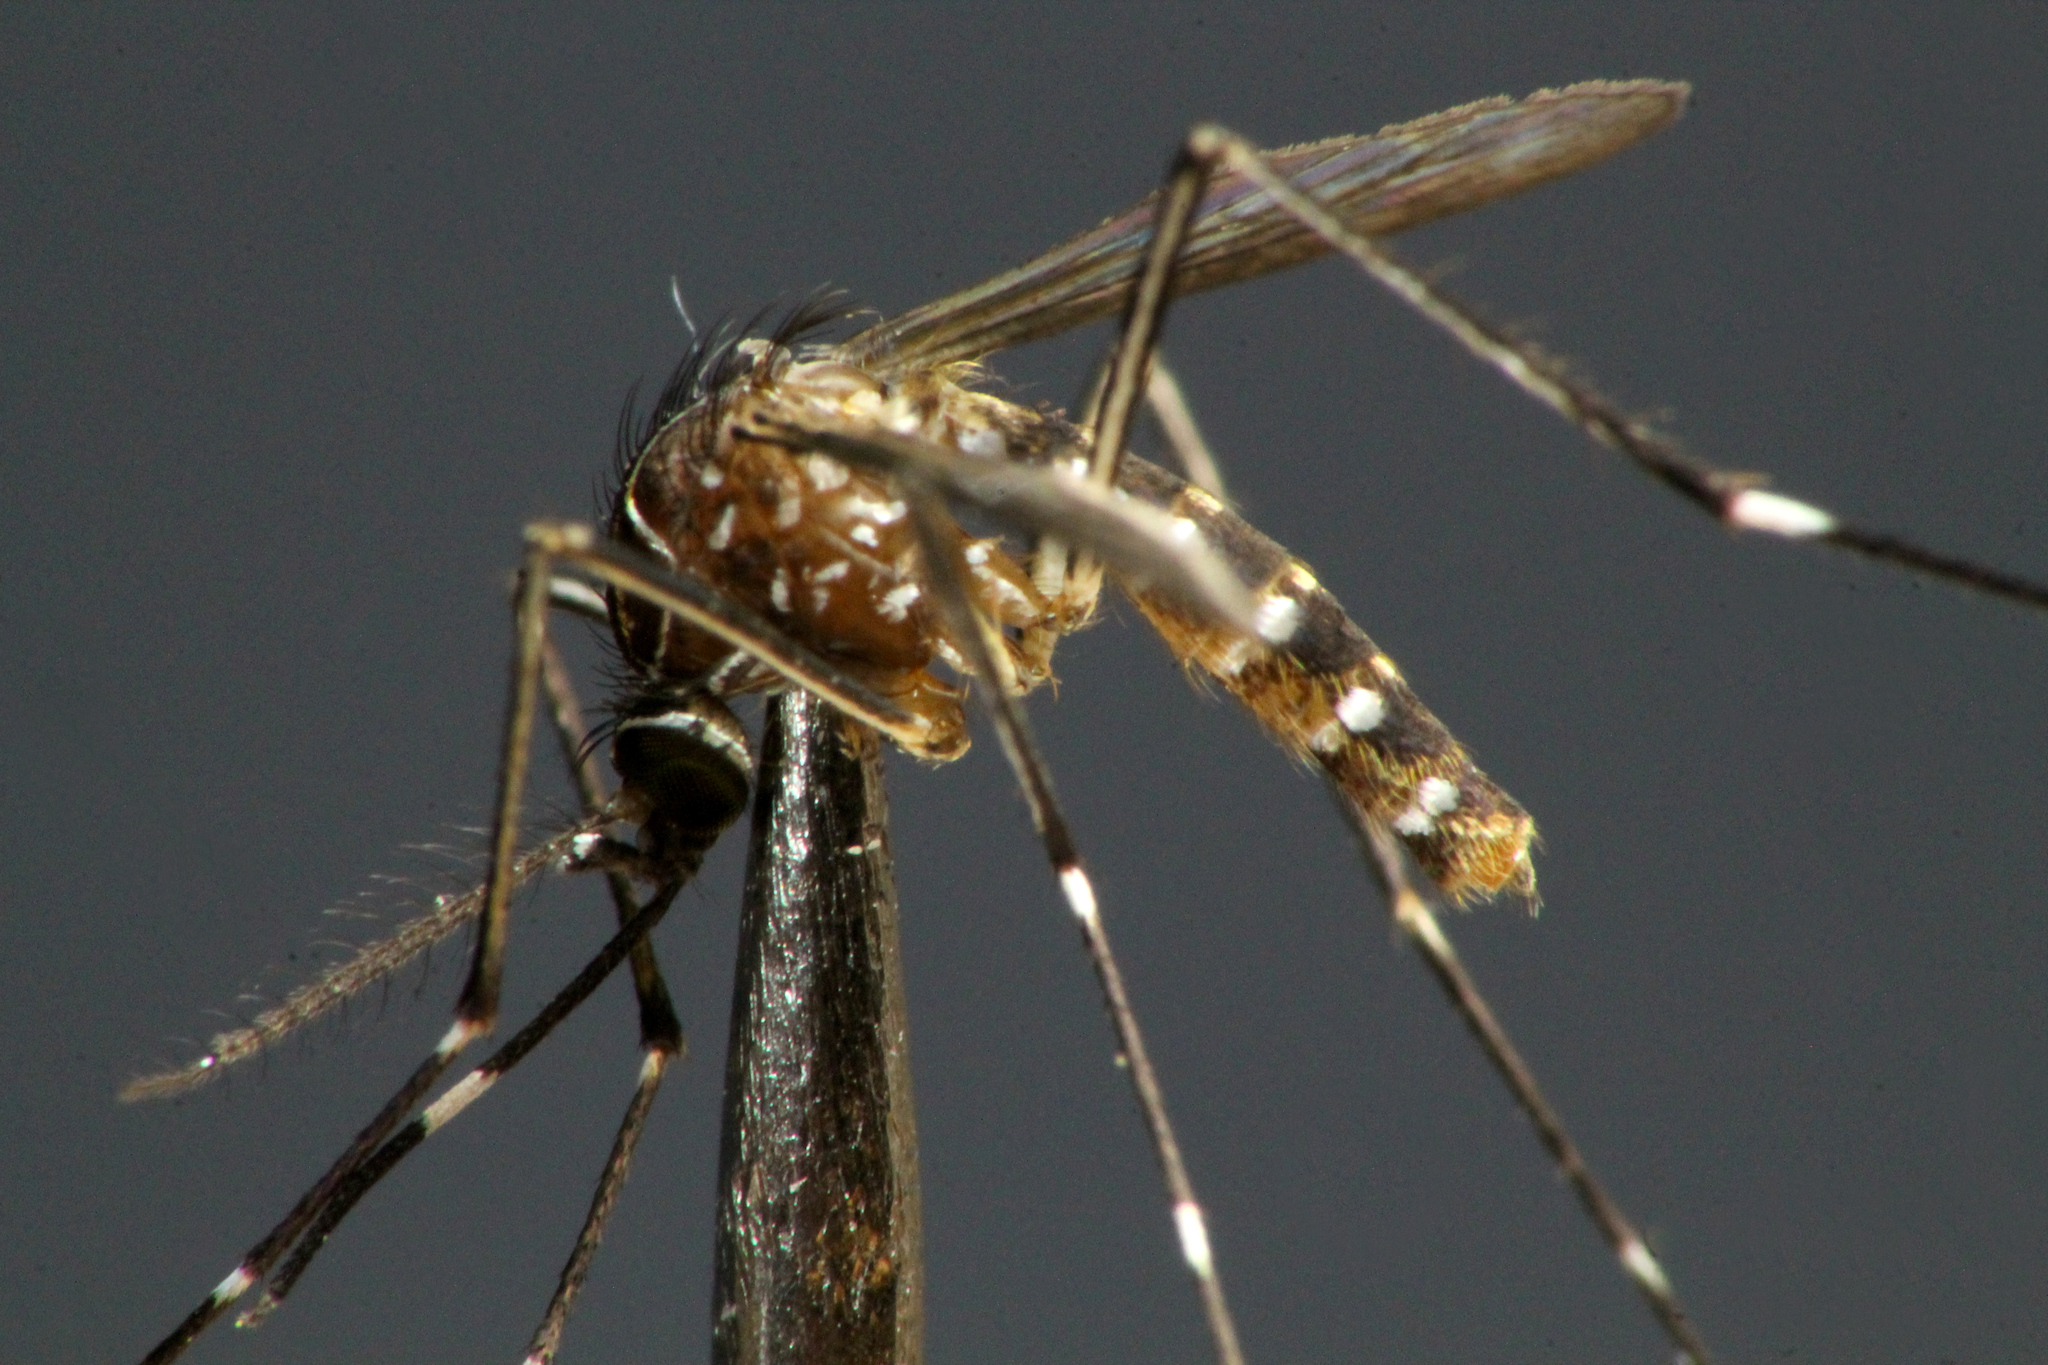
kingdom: Animalia
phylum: Arthropoda
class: Insecta
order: Diptera
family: Culicidae
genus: Aedes
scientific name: Aedes notoscriptus
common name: Australian backyard mosquito
